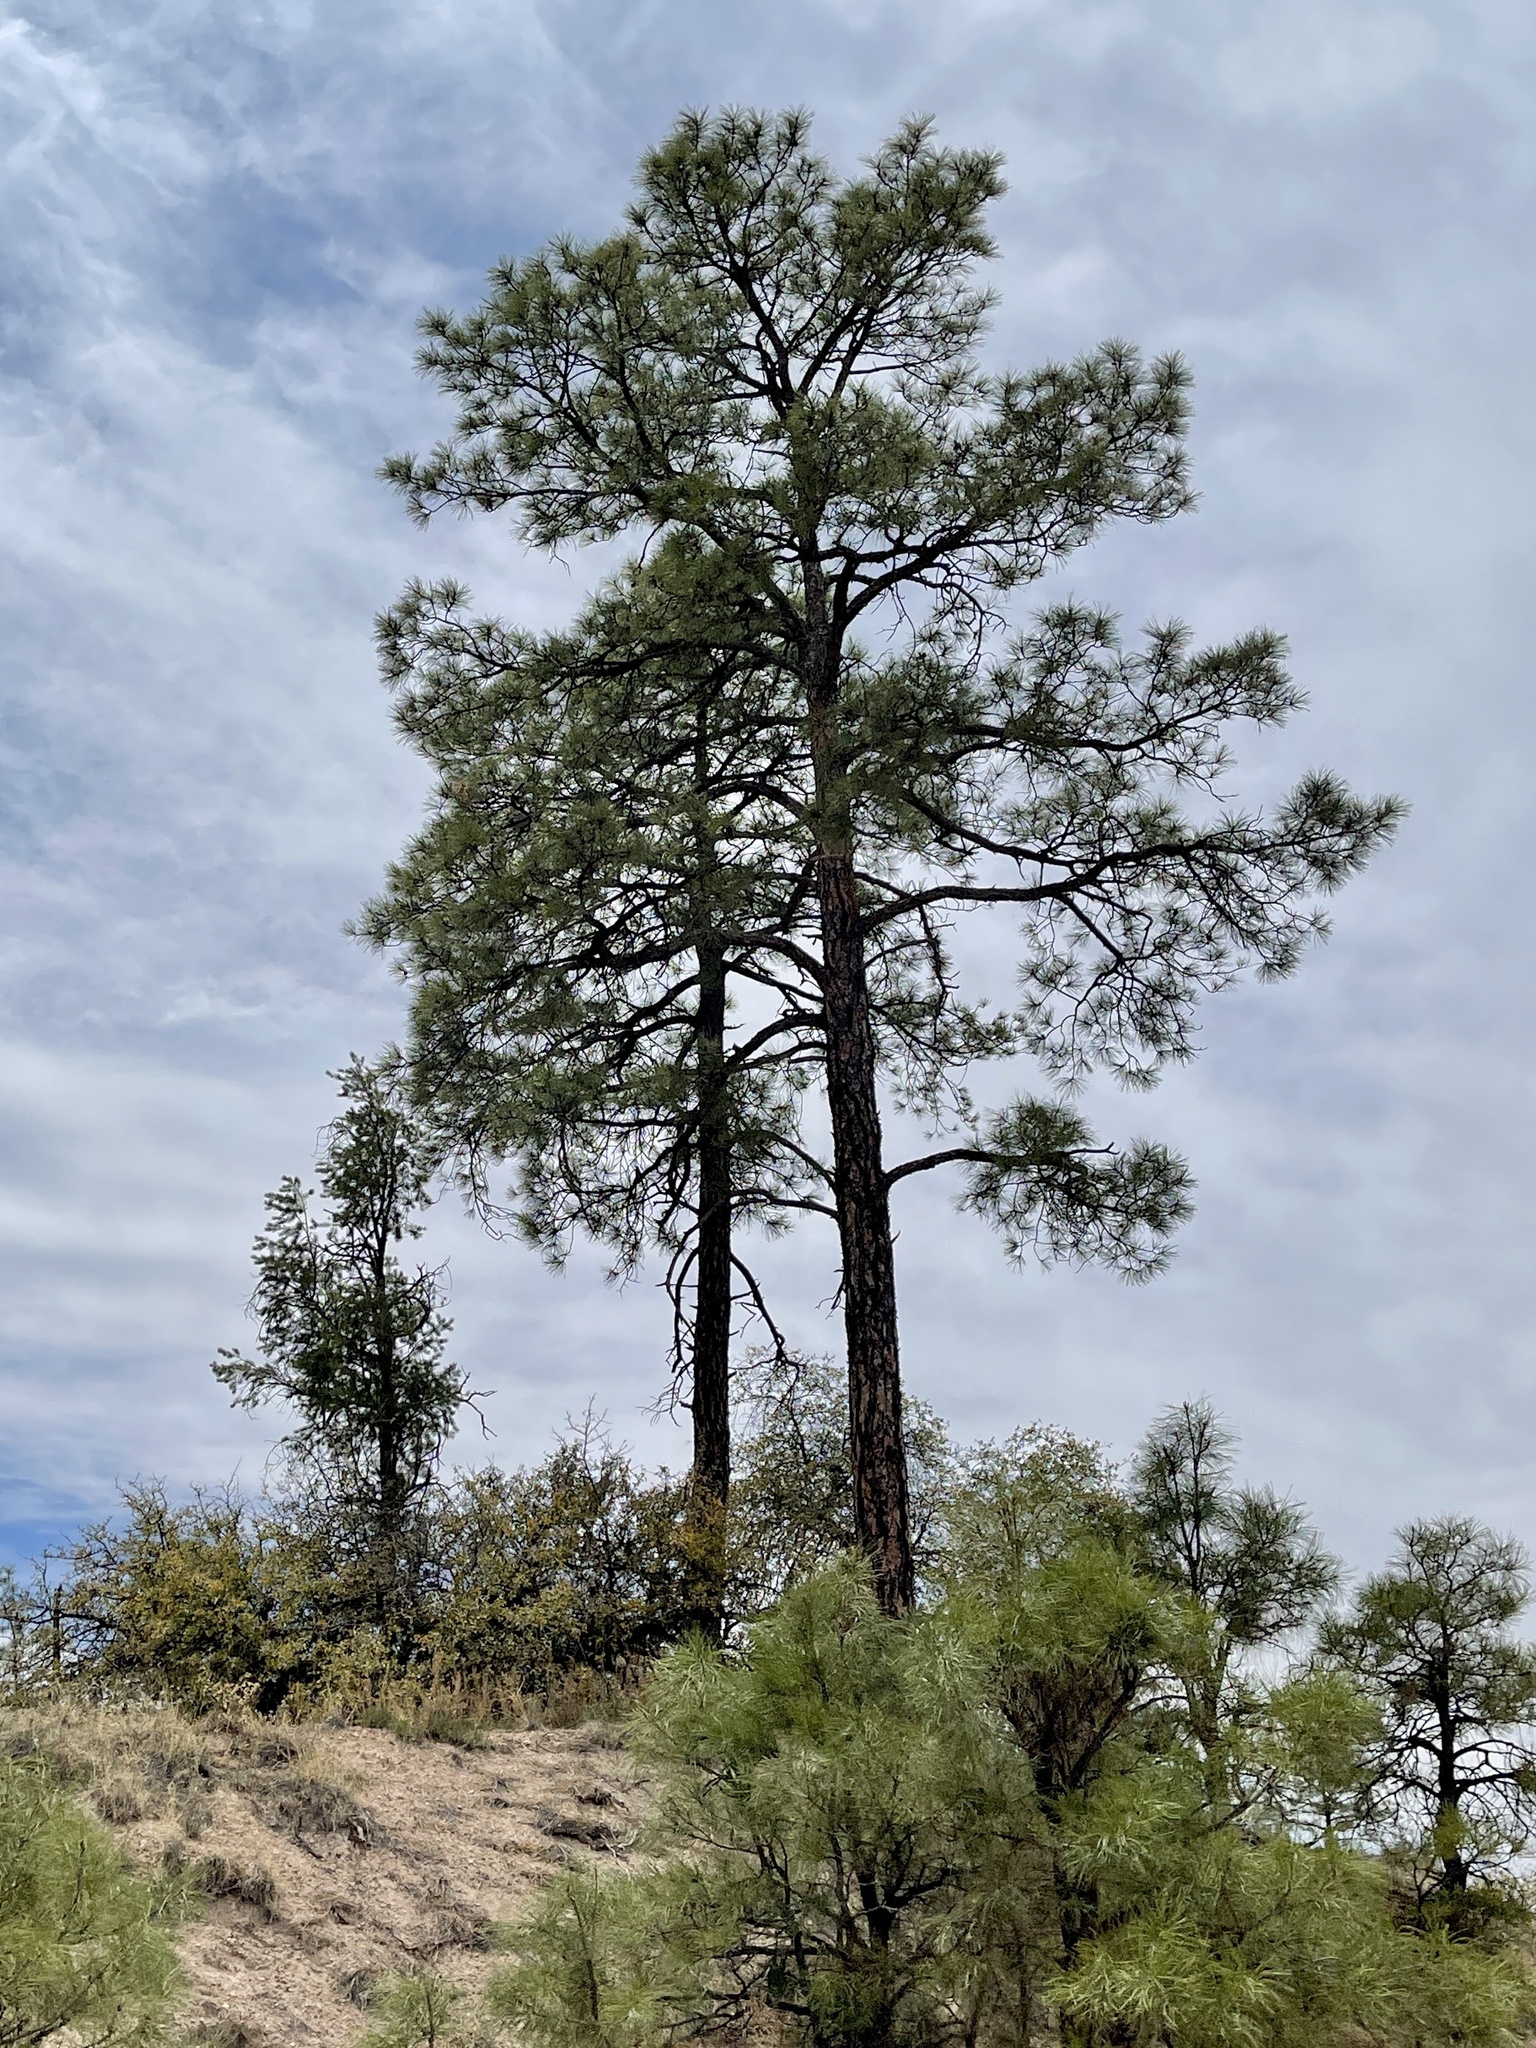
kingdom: Plantae
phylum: Tracheophyta
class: Pinopsida
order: Pinales
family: Pinaceae
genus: Pinus
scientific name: Pinus ponderosa
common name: Western yellow-pine
